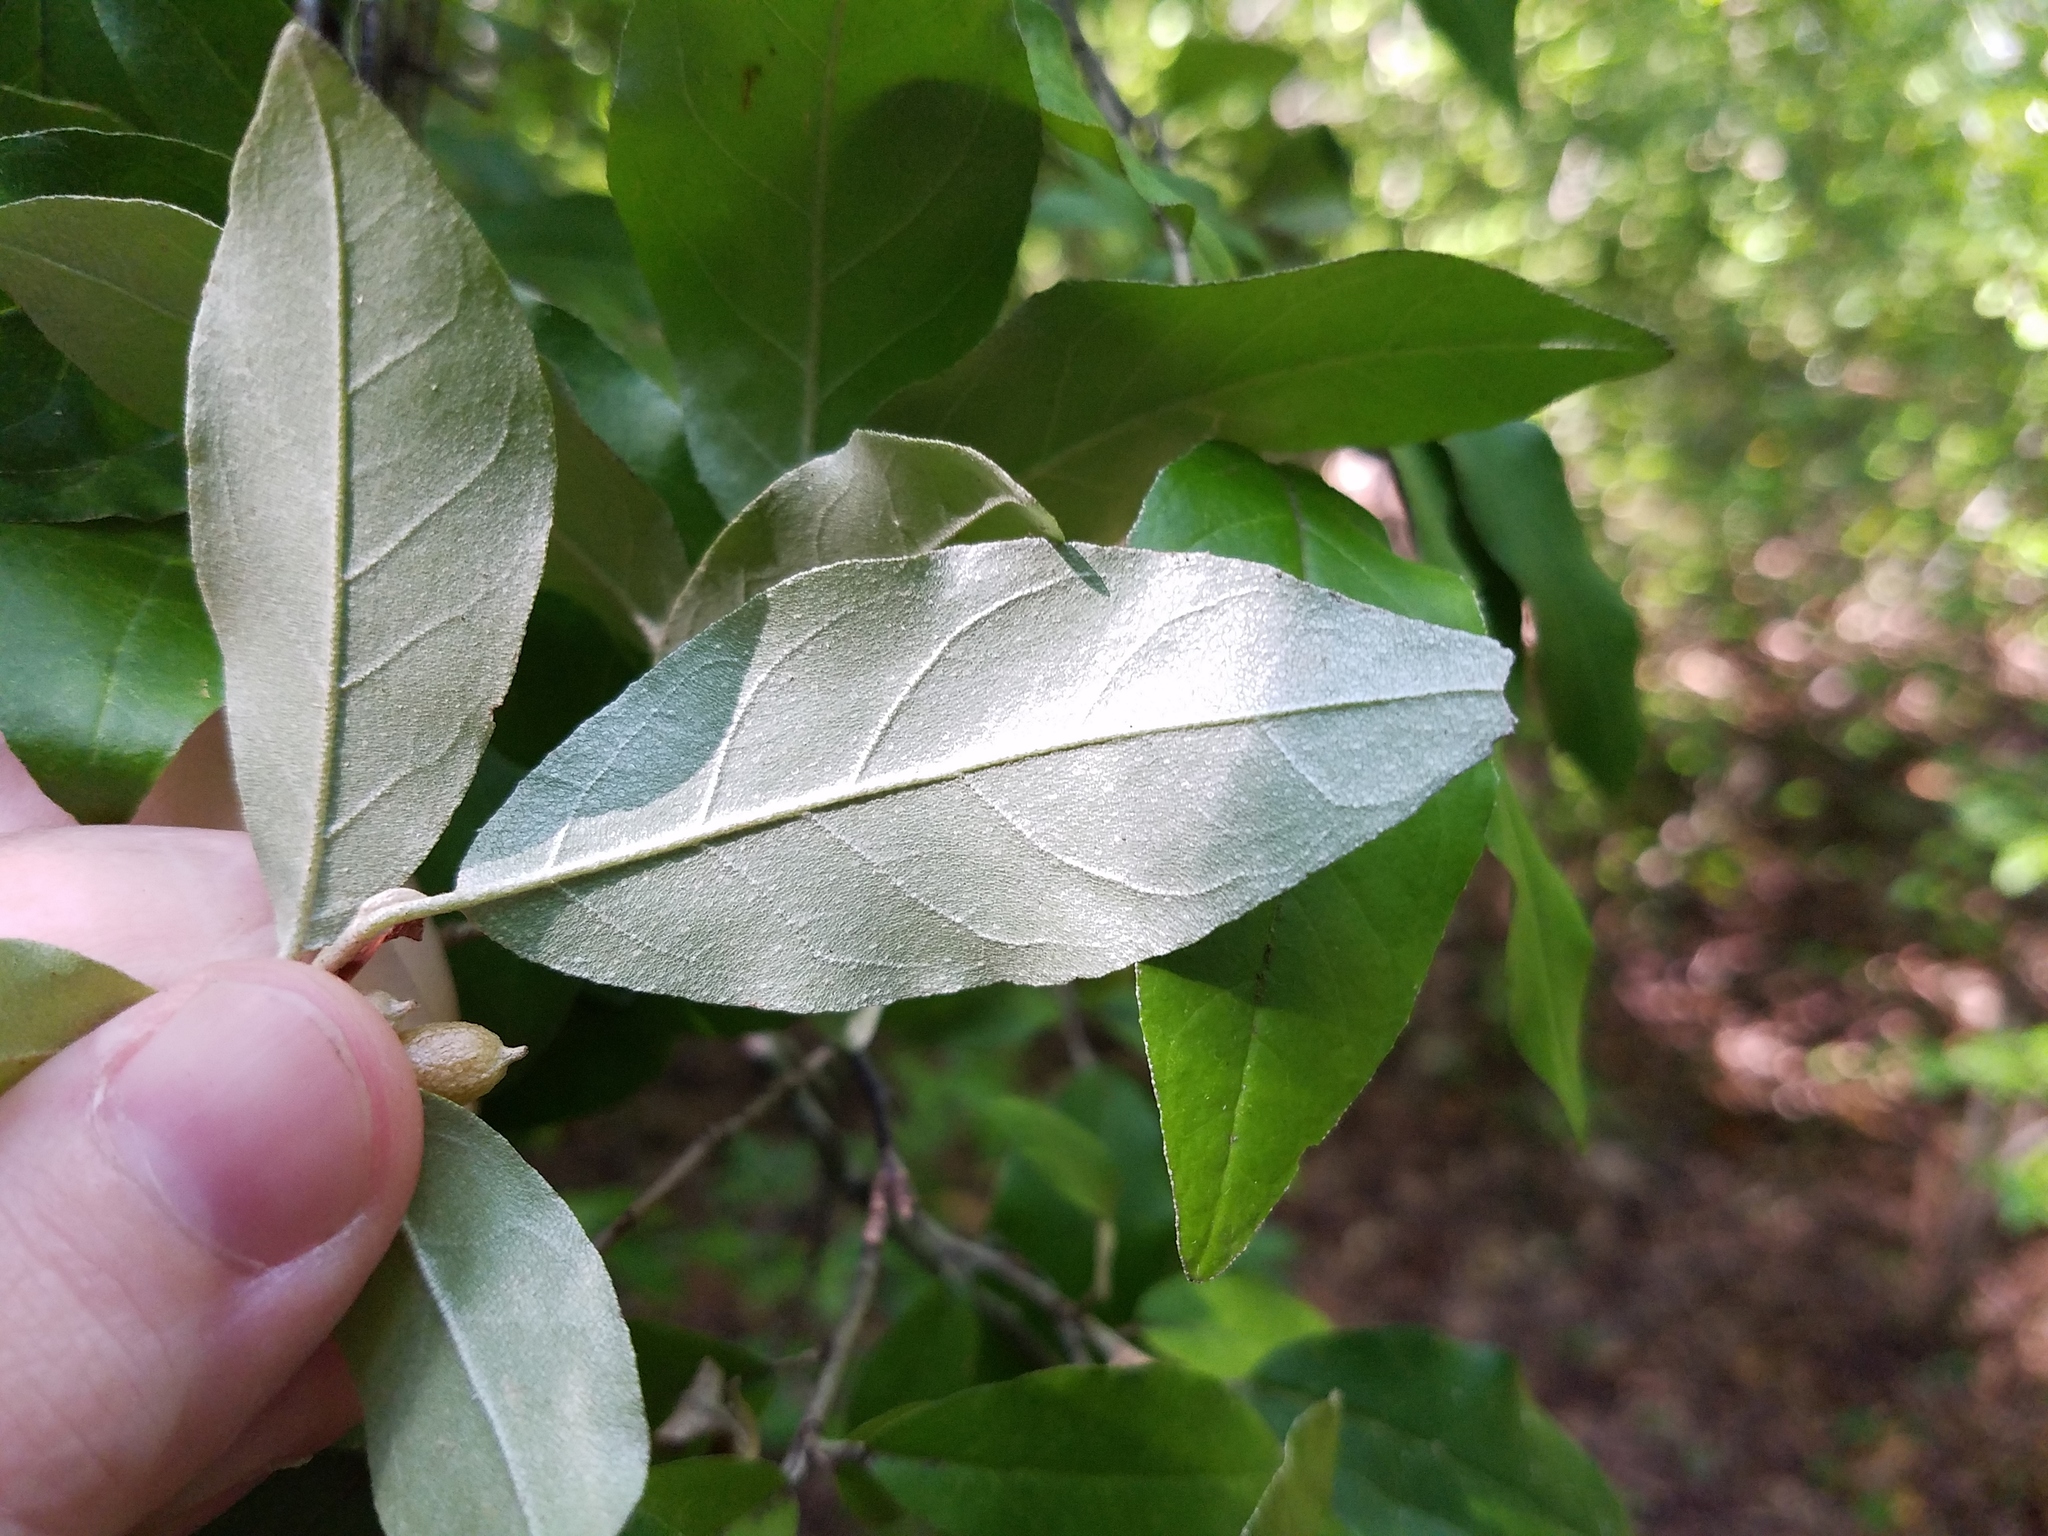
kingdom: Plantae
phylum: Tracheophyta
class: Magnoliopsida
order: Rosales
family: Elaeagnaceae
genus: Elaeagnus
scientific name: Elaeagnus umbellata
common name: Autumn olive
